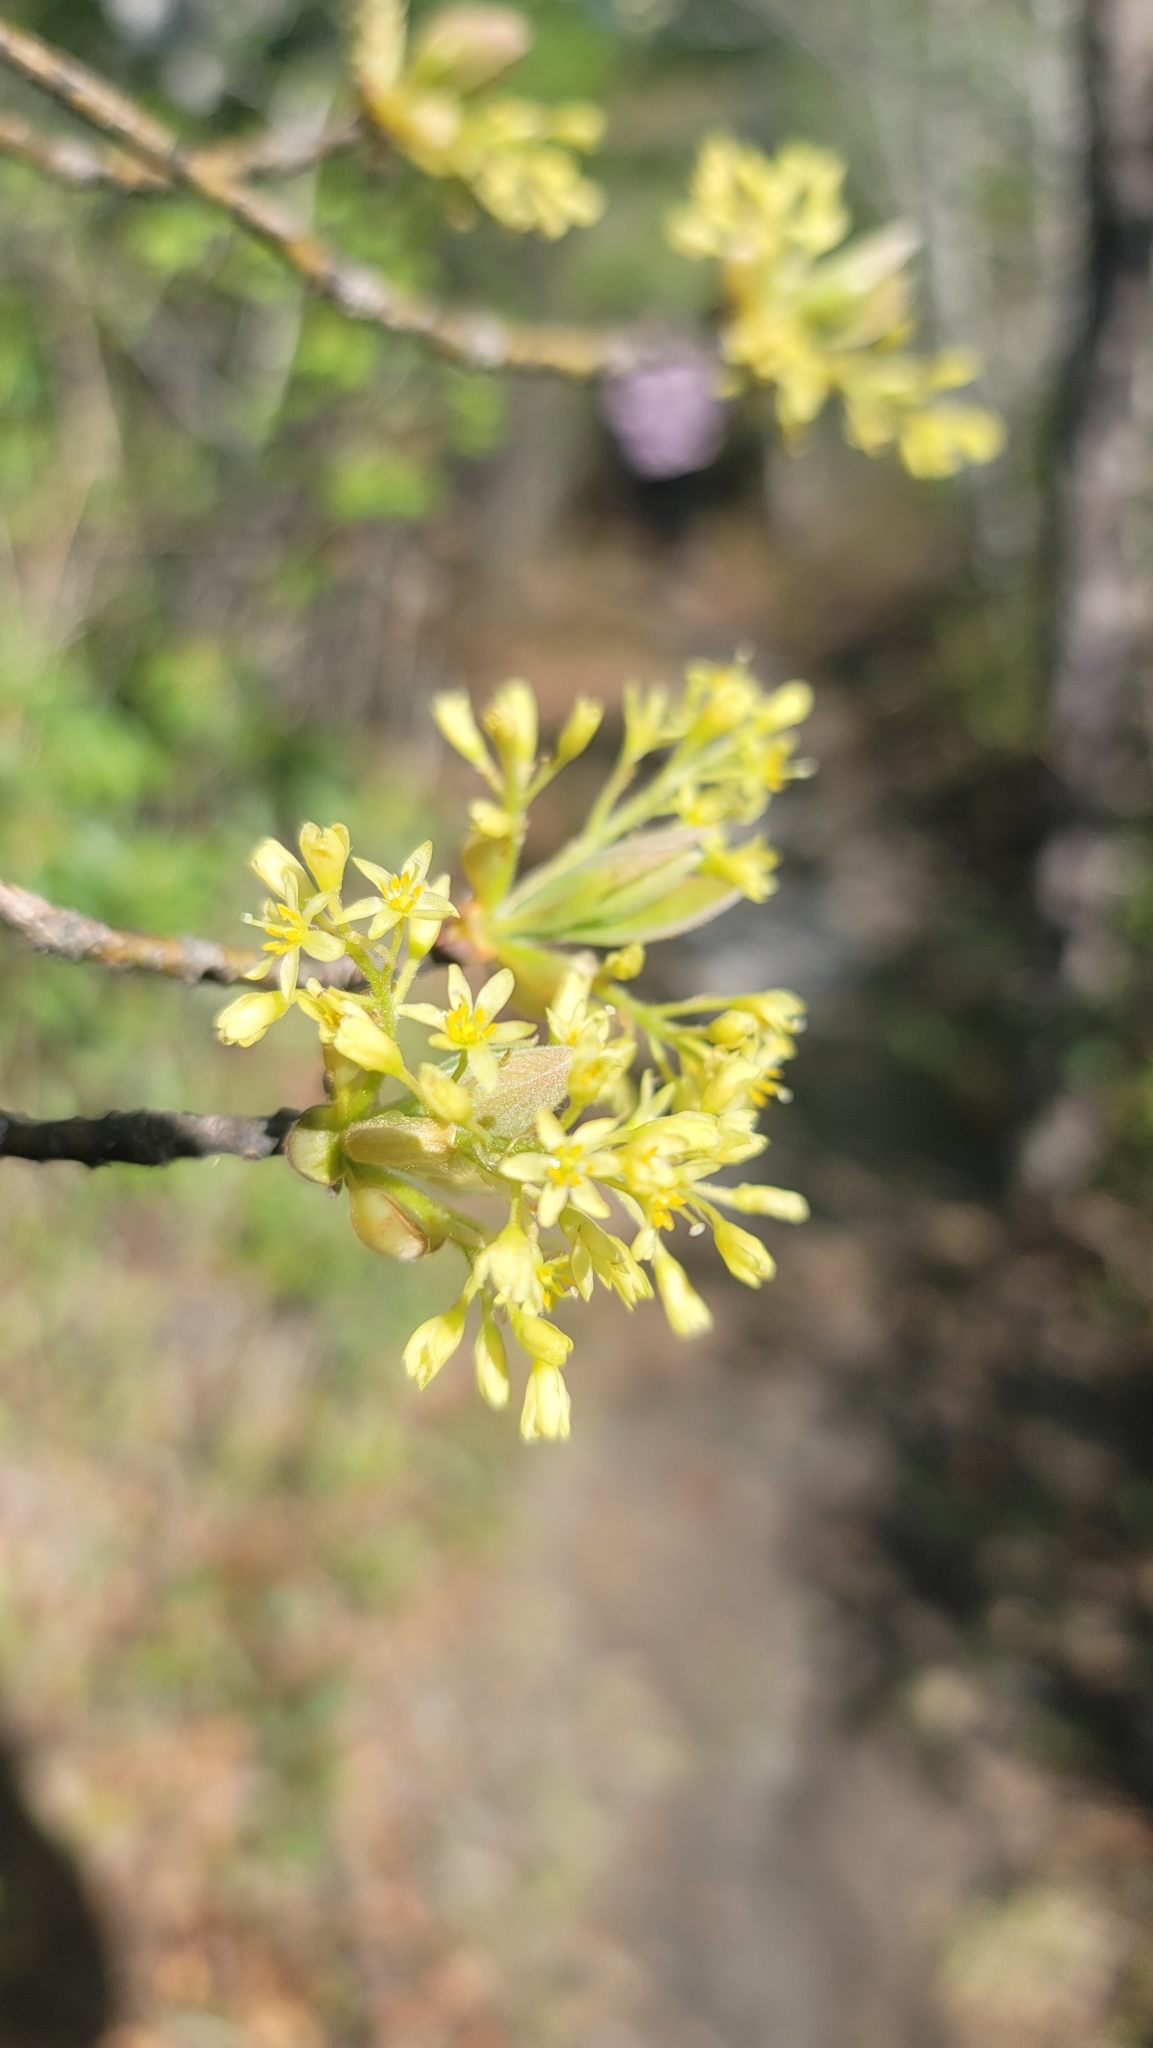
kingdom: Plantae
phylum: Tracheophyta
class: Magnoliopsida
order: Laurales
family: Lauraceae
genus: Sassafras
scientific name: Sassafras albidum
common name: Sassafras
